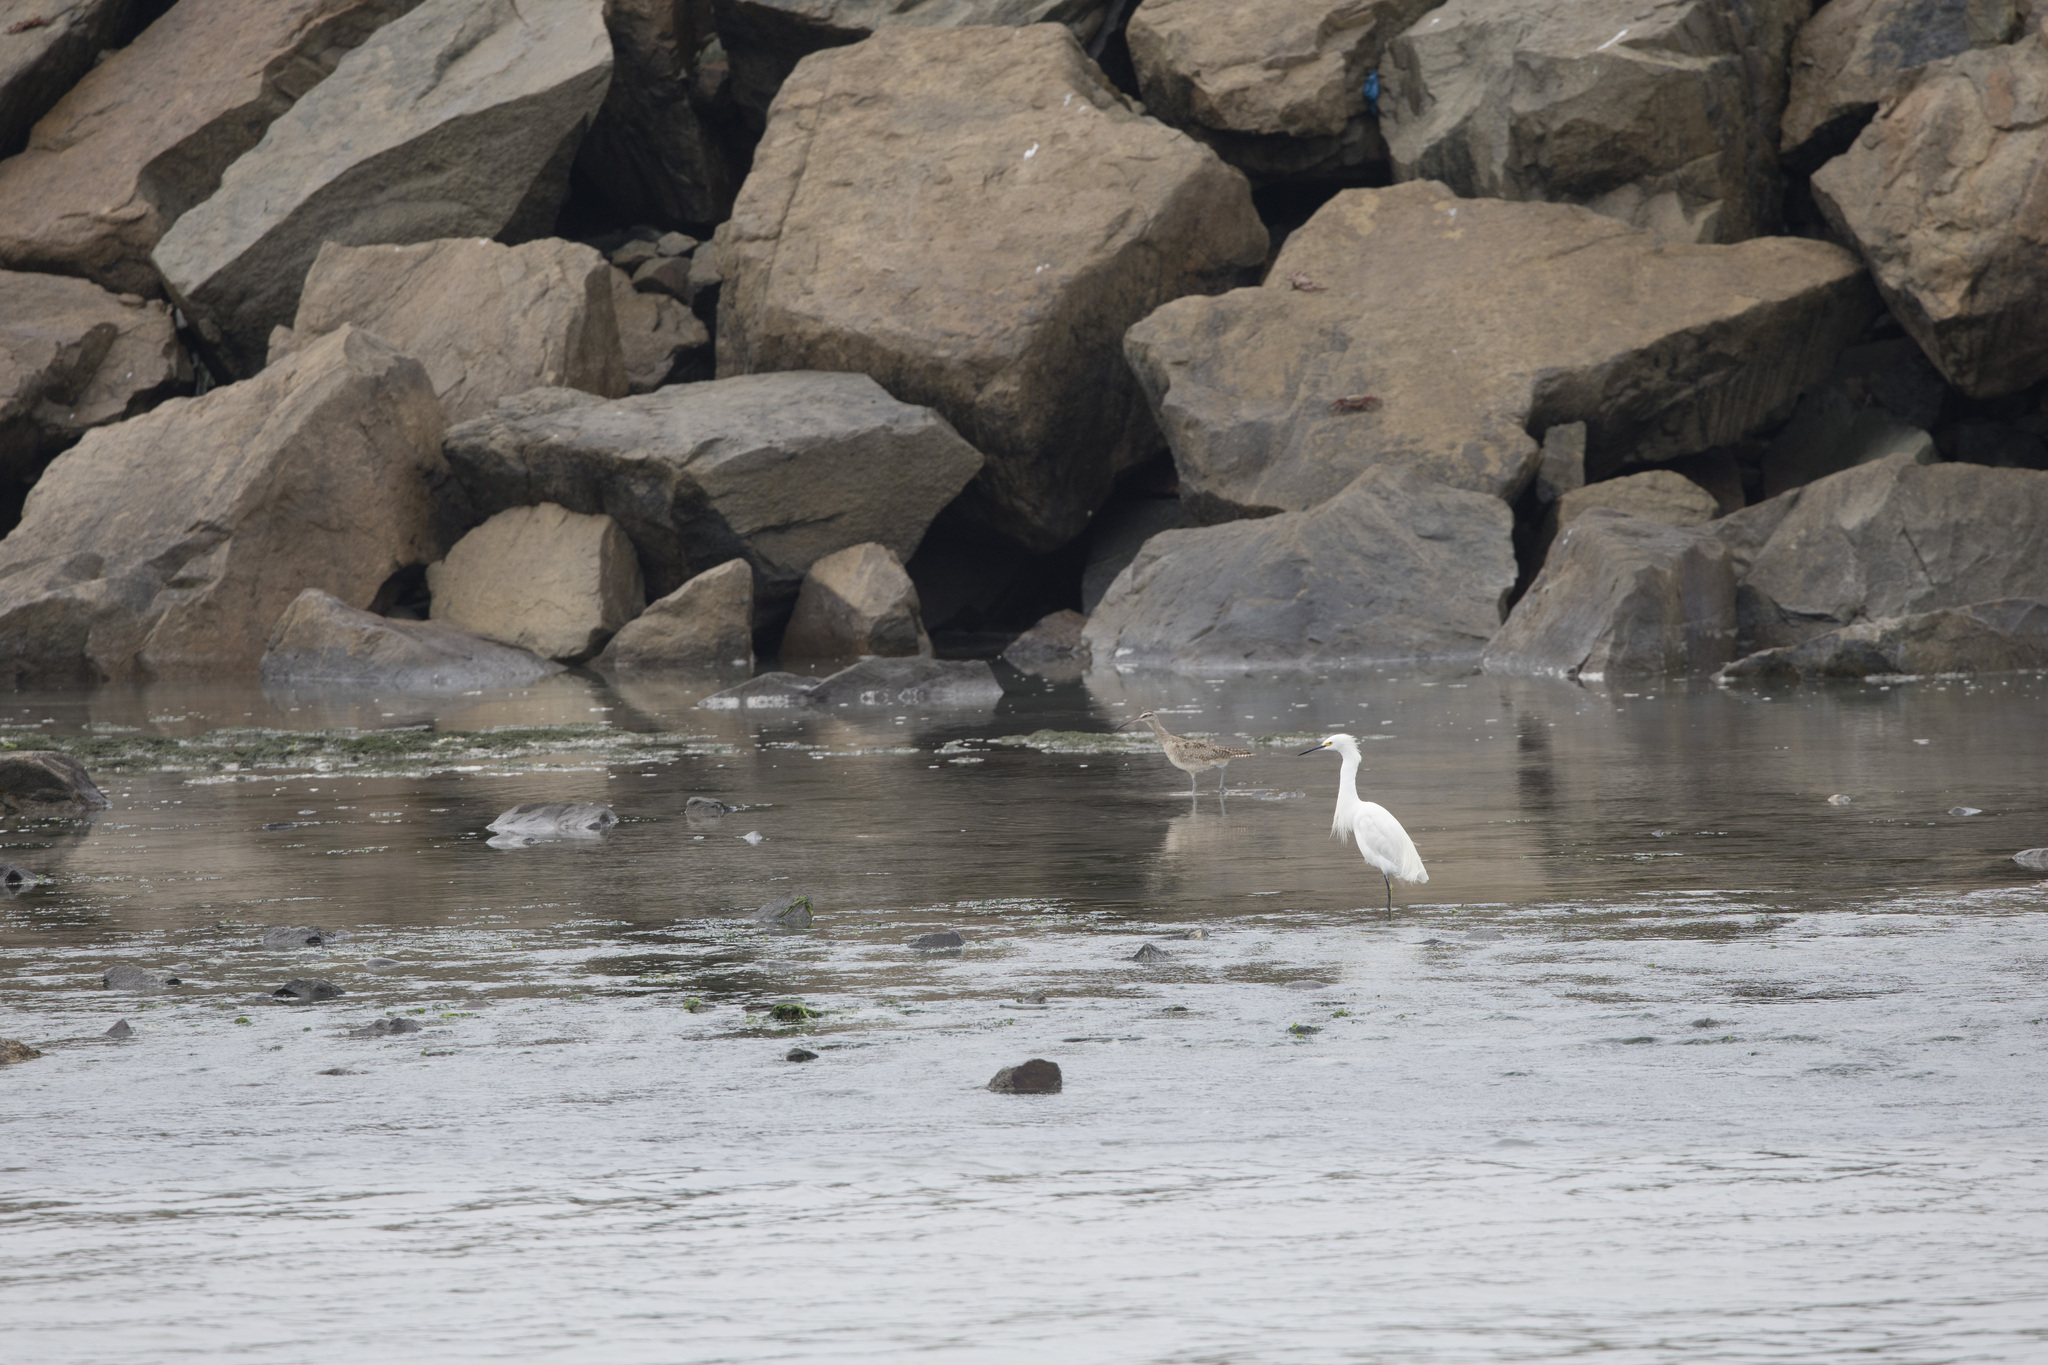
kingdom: Animalia
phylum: Chordata
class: Aves
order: Charadriiformes
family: Scolopacidae
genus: Numenius
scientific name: Numenius phaeopus
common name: Whimbrel
